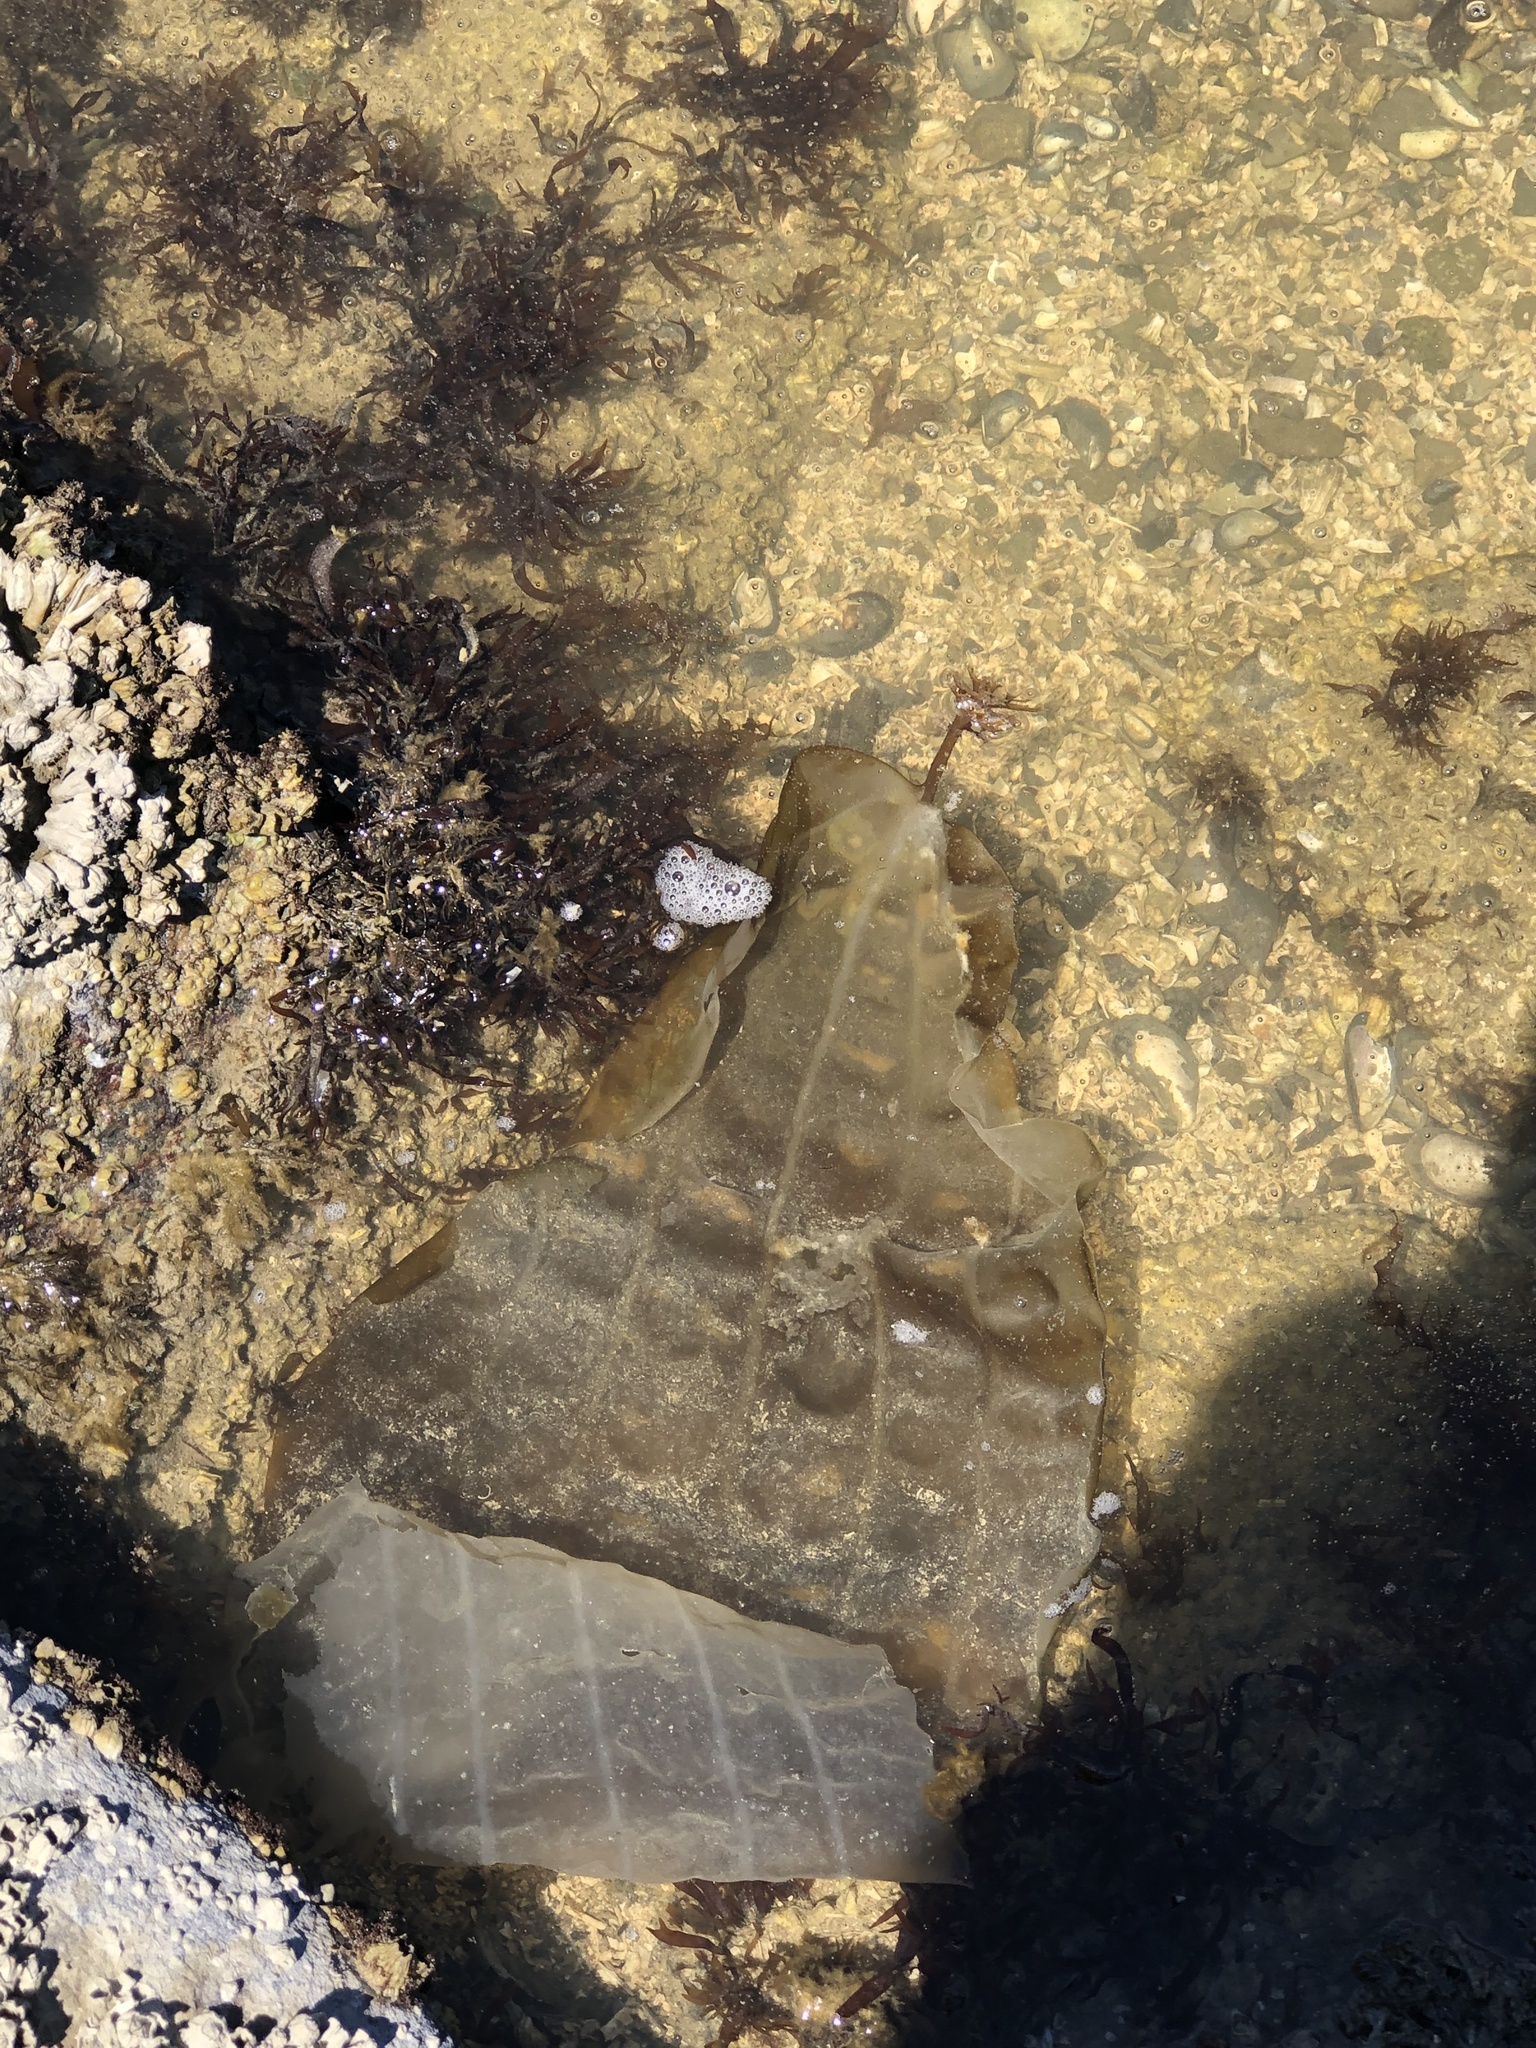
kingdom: Chromista
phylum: Ochrophyta
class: Phaeophyceae
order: Laminariales
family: Costariaceae
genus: Costaria
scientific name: Costaria costata
